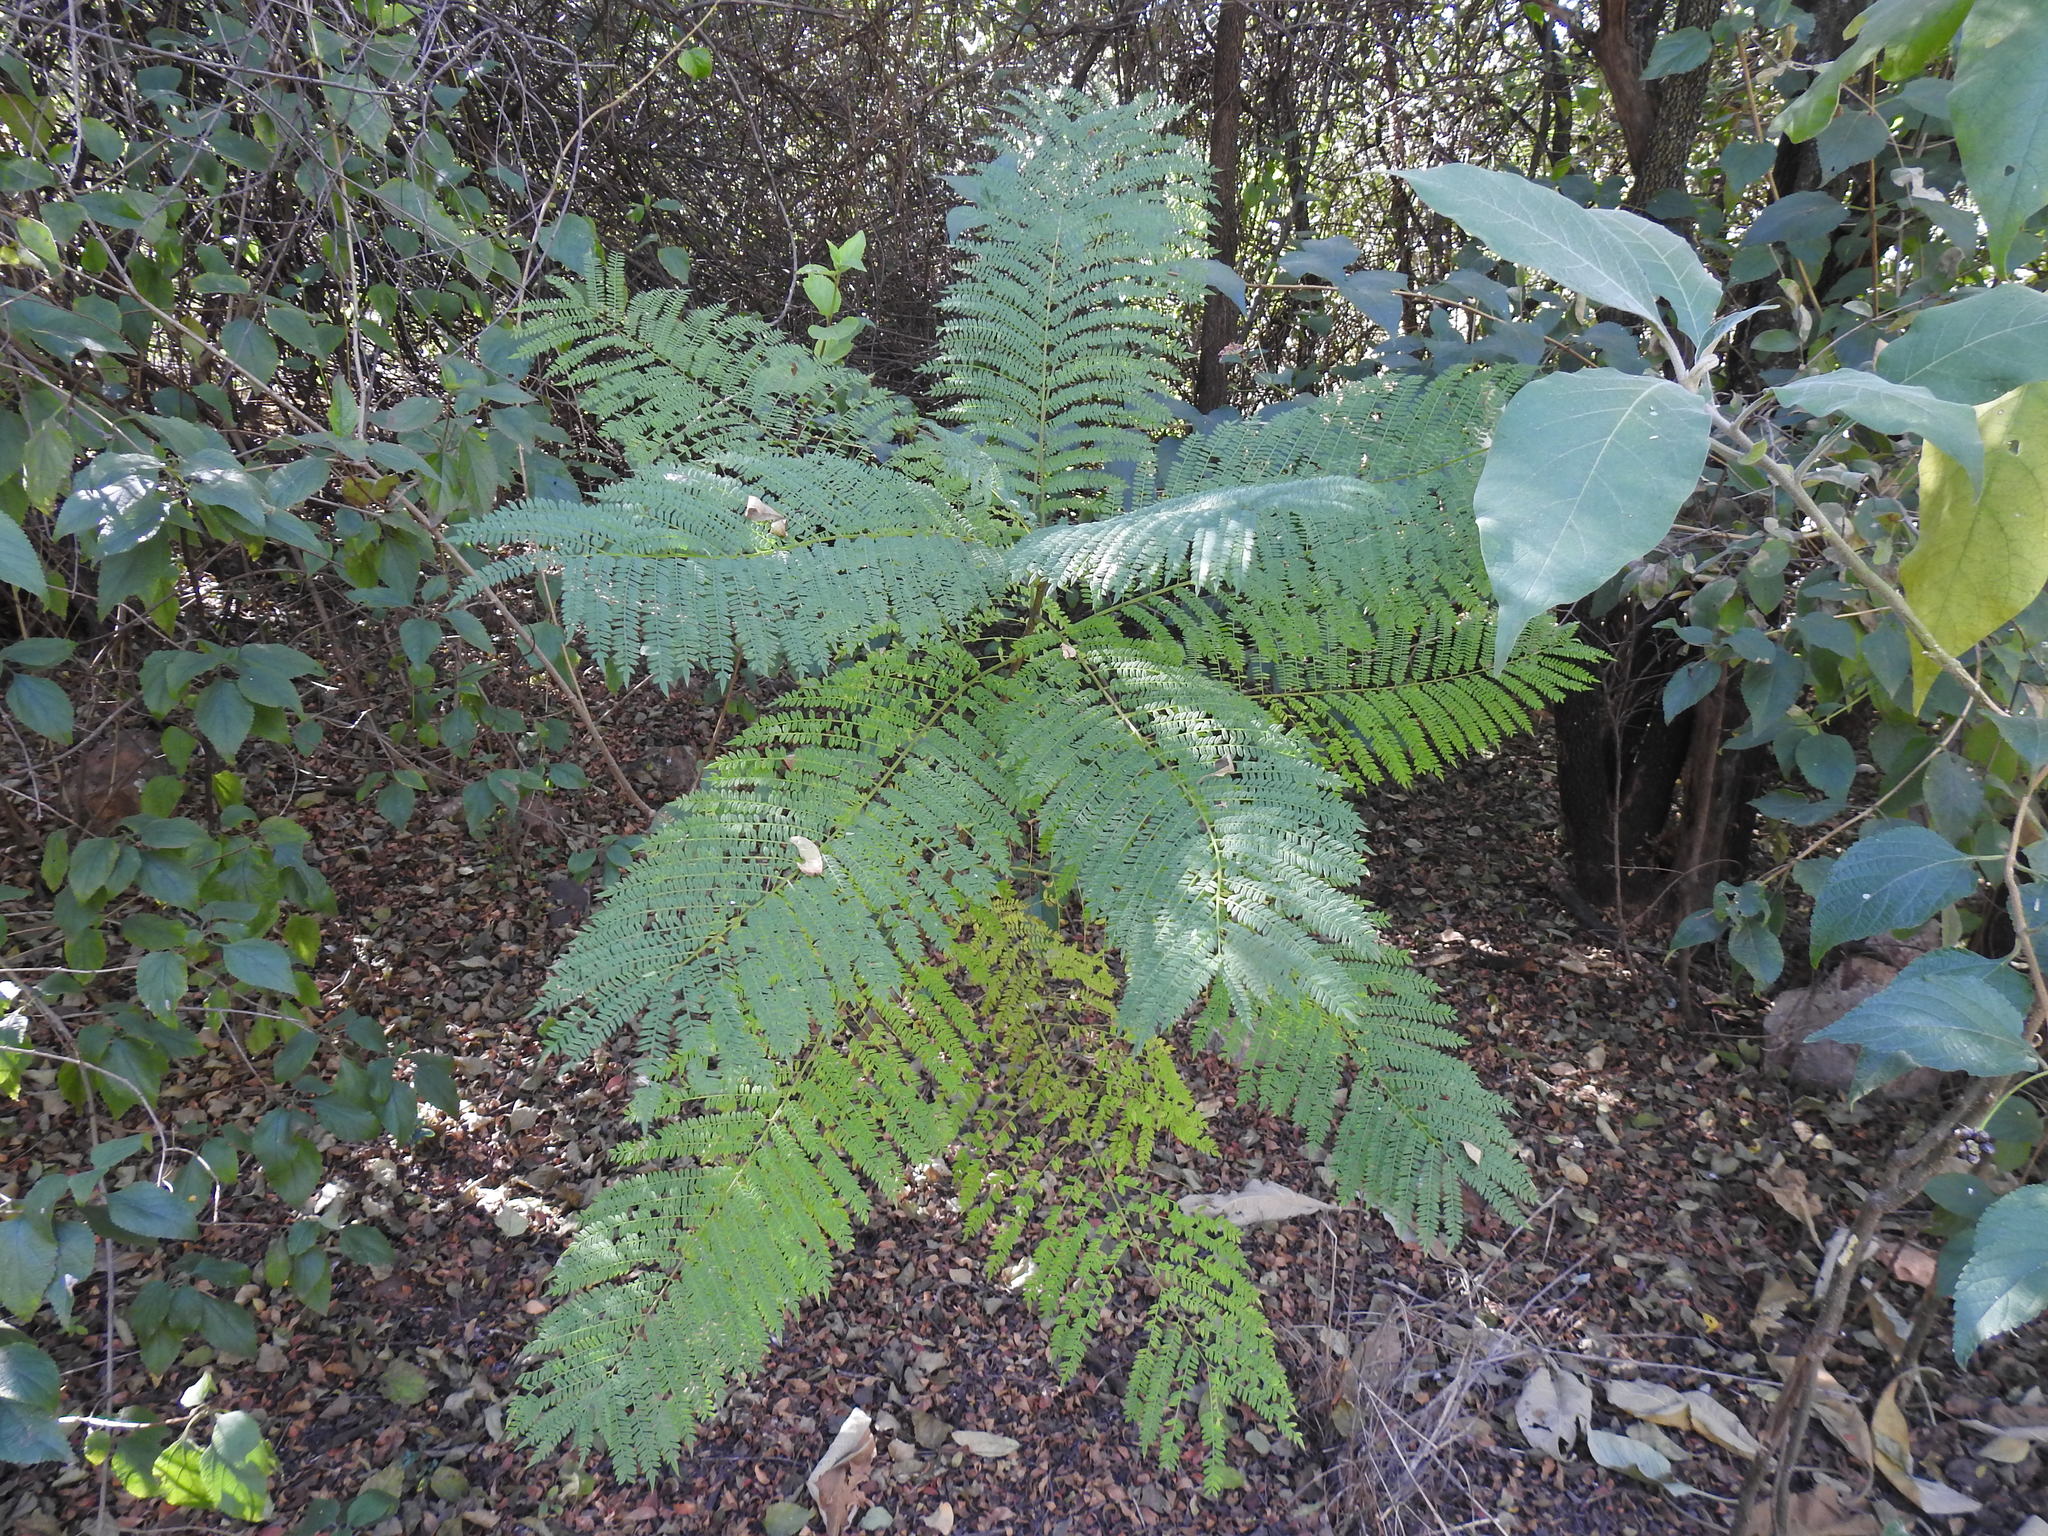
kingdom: Plantae
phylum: Tracheophyta
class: Magnoliopsida
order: Lamiales
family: Bignoniaceae
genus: Jacaranda
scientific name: Jacaranda mimosifolia
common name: Black poui
